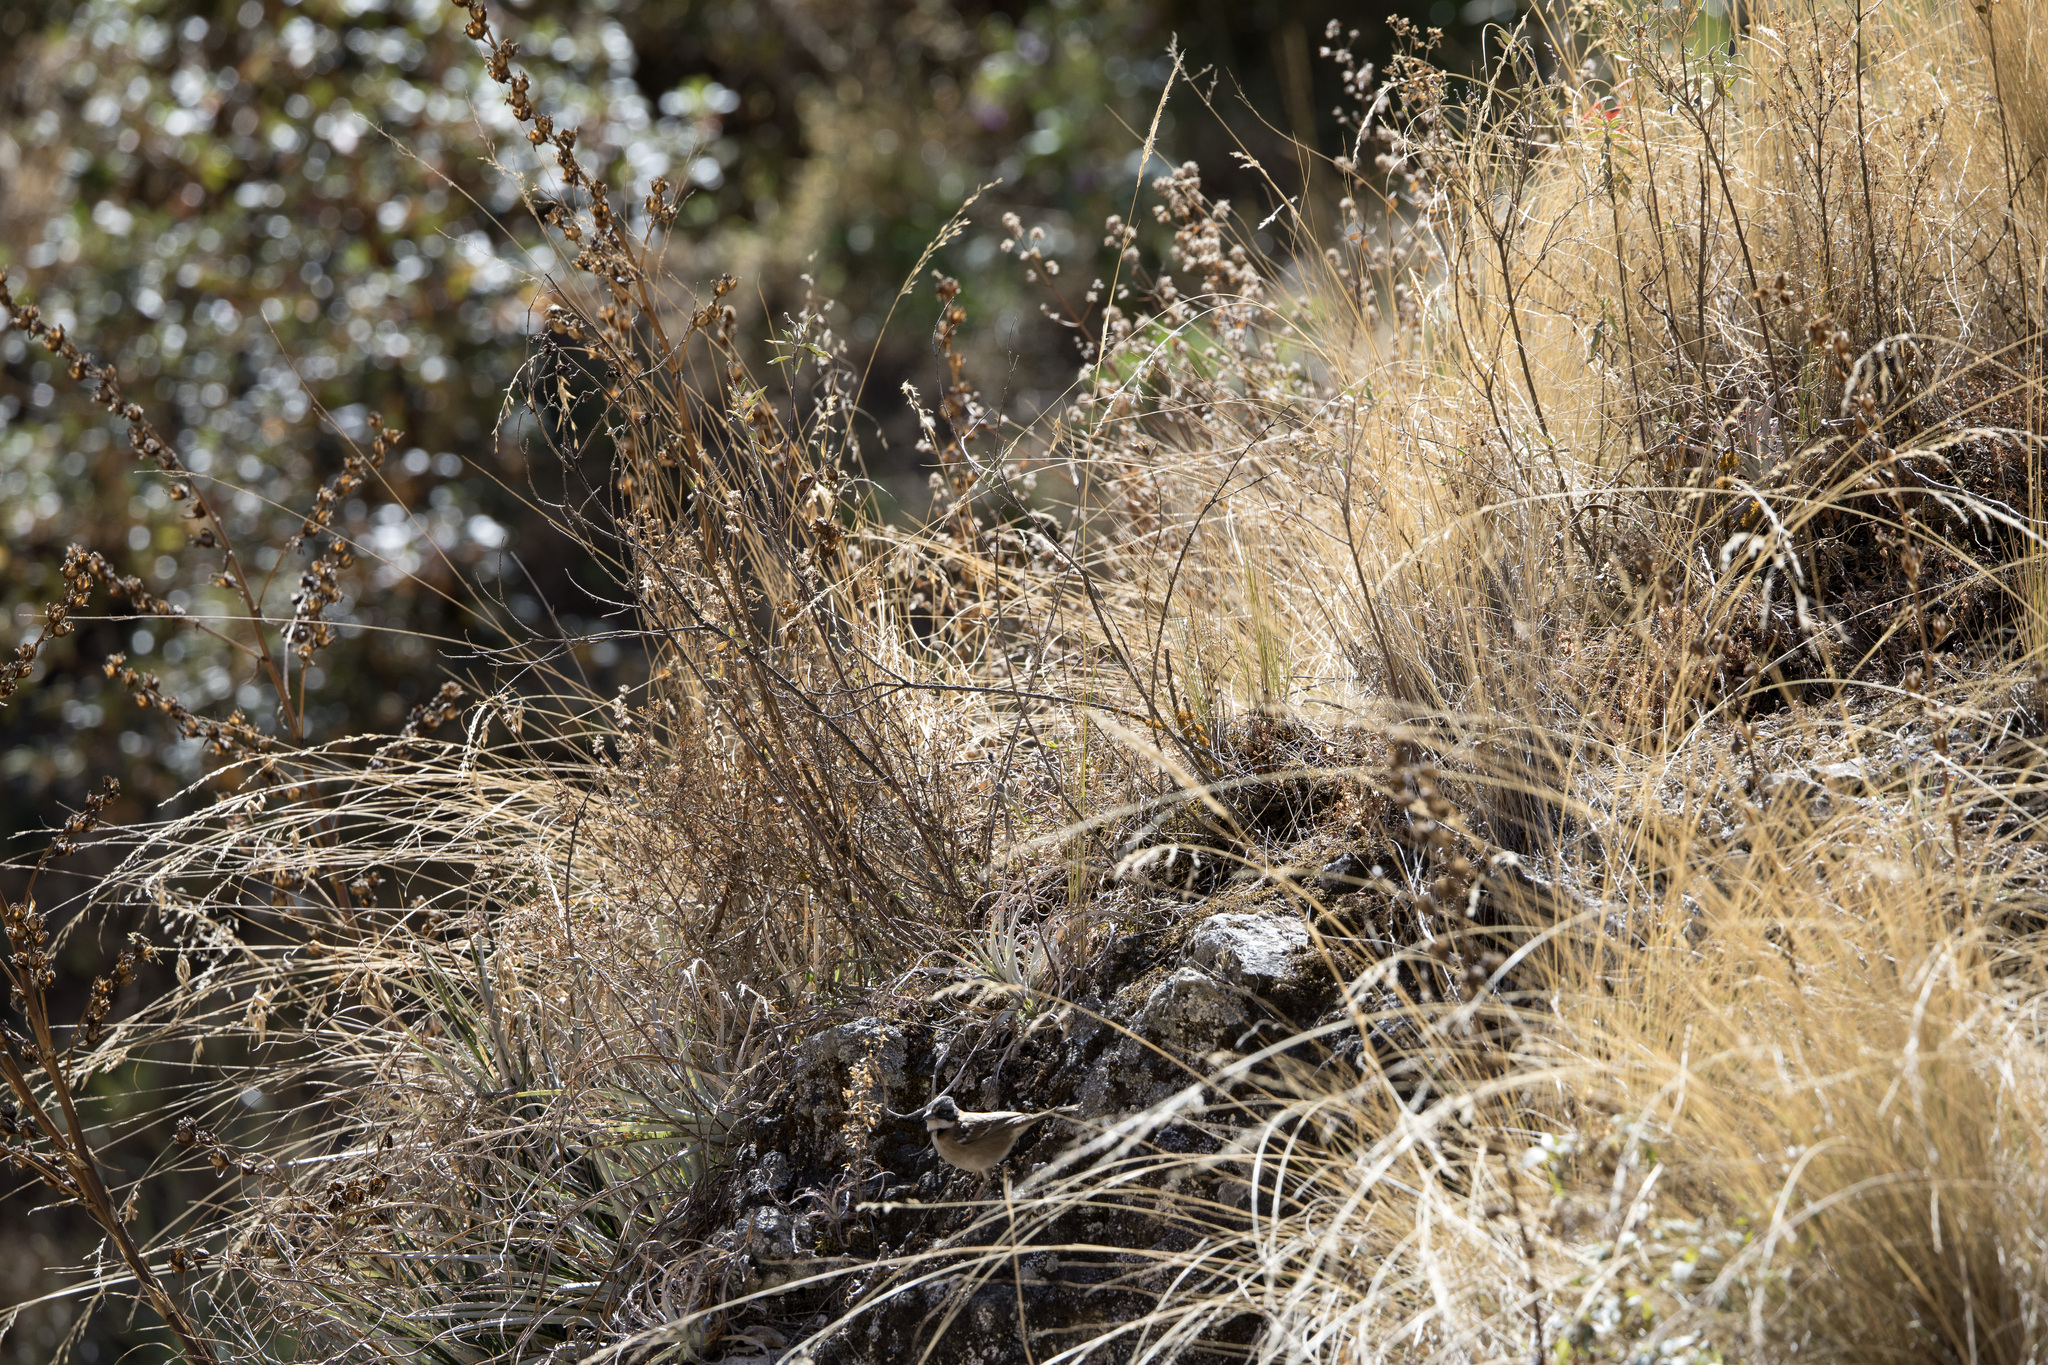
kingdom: Animalia
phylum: Chordata
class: Aves
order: Passeriformes
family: Passerellidae
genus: Zonotrichia
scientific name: Zonotrichia capensis
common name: Rufous-collared sparrow
